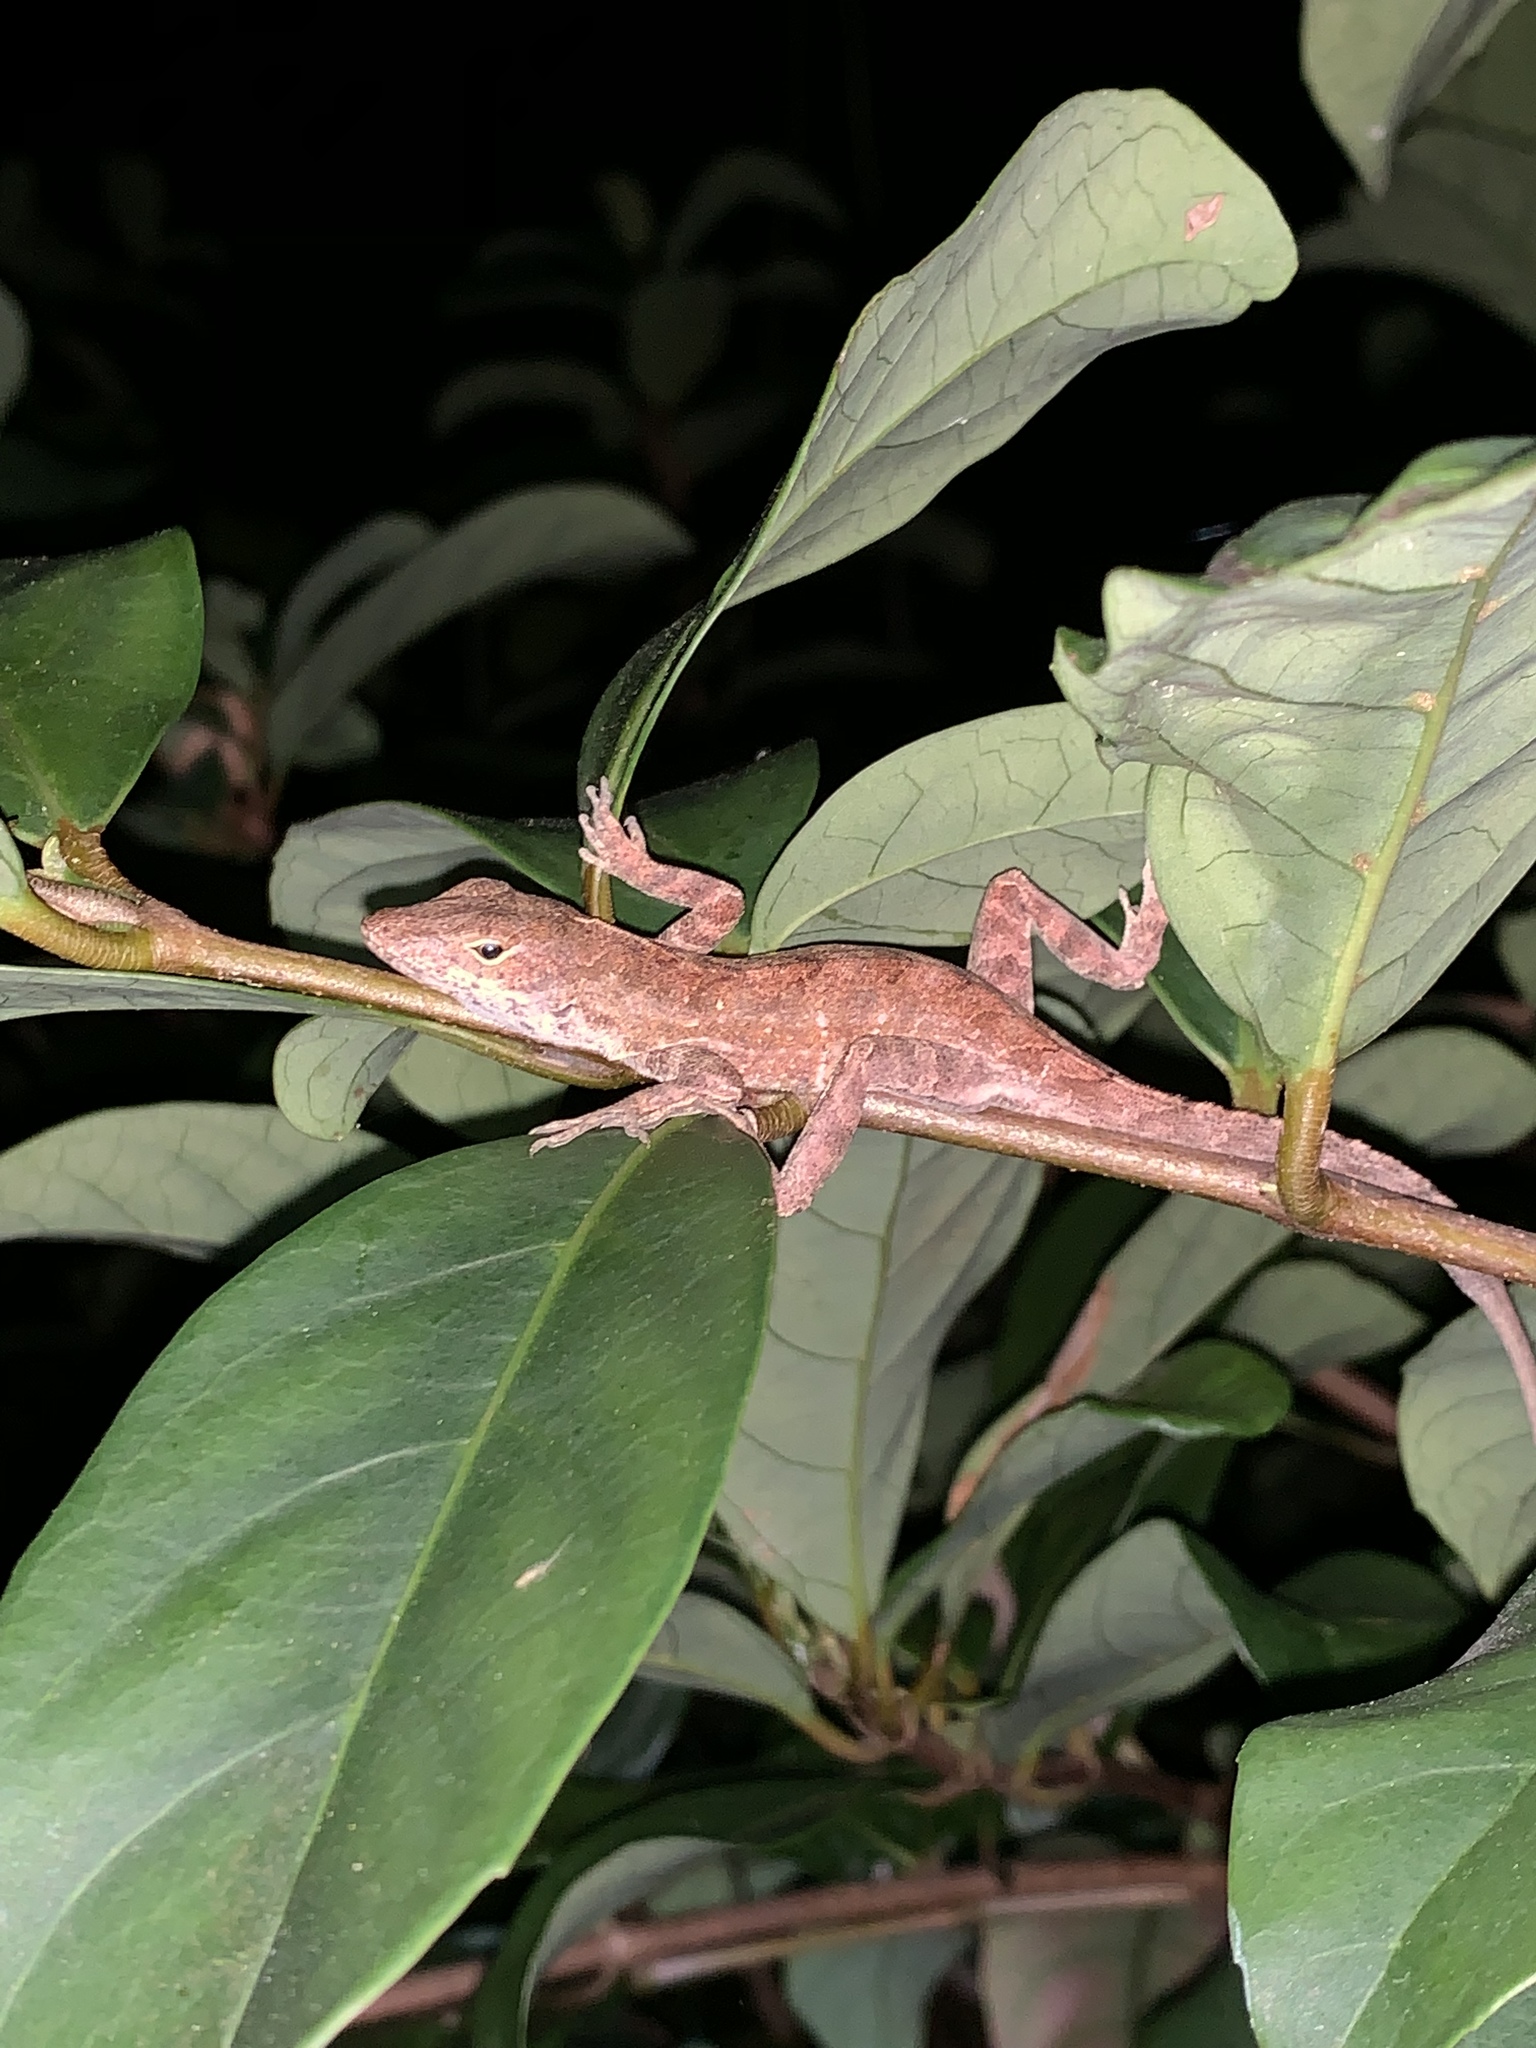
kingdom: Animalia
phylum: Chordata
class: Squamata
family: Dactyloidae
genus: Anolis
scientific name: Anolis sagrei
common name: Brown anole
